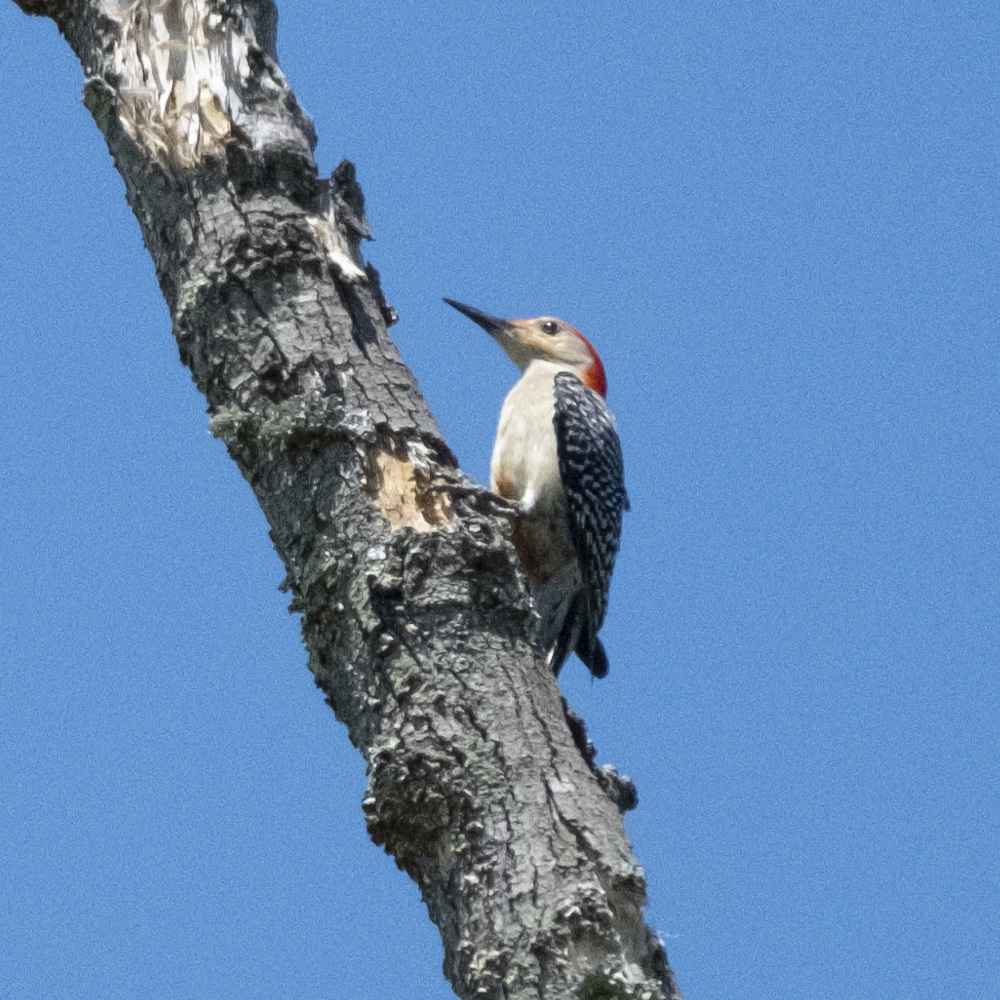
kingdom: Animalia
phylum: Chordata
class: Aves
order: Piciformes
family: Picidae
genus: Melanerpes
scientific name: Melanerpes carolinus
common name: Red-bellied woodpecker
